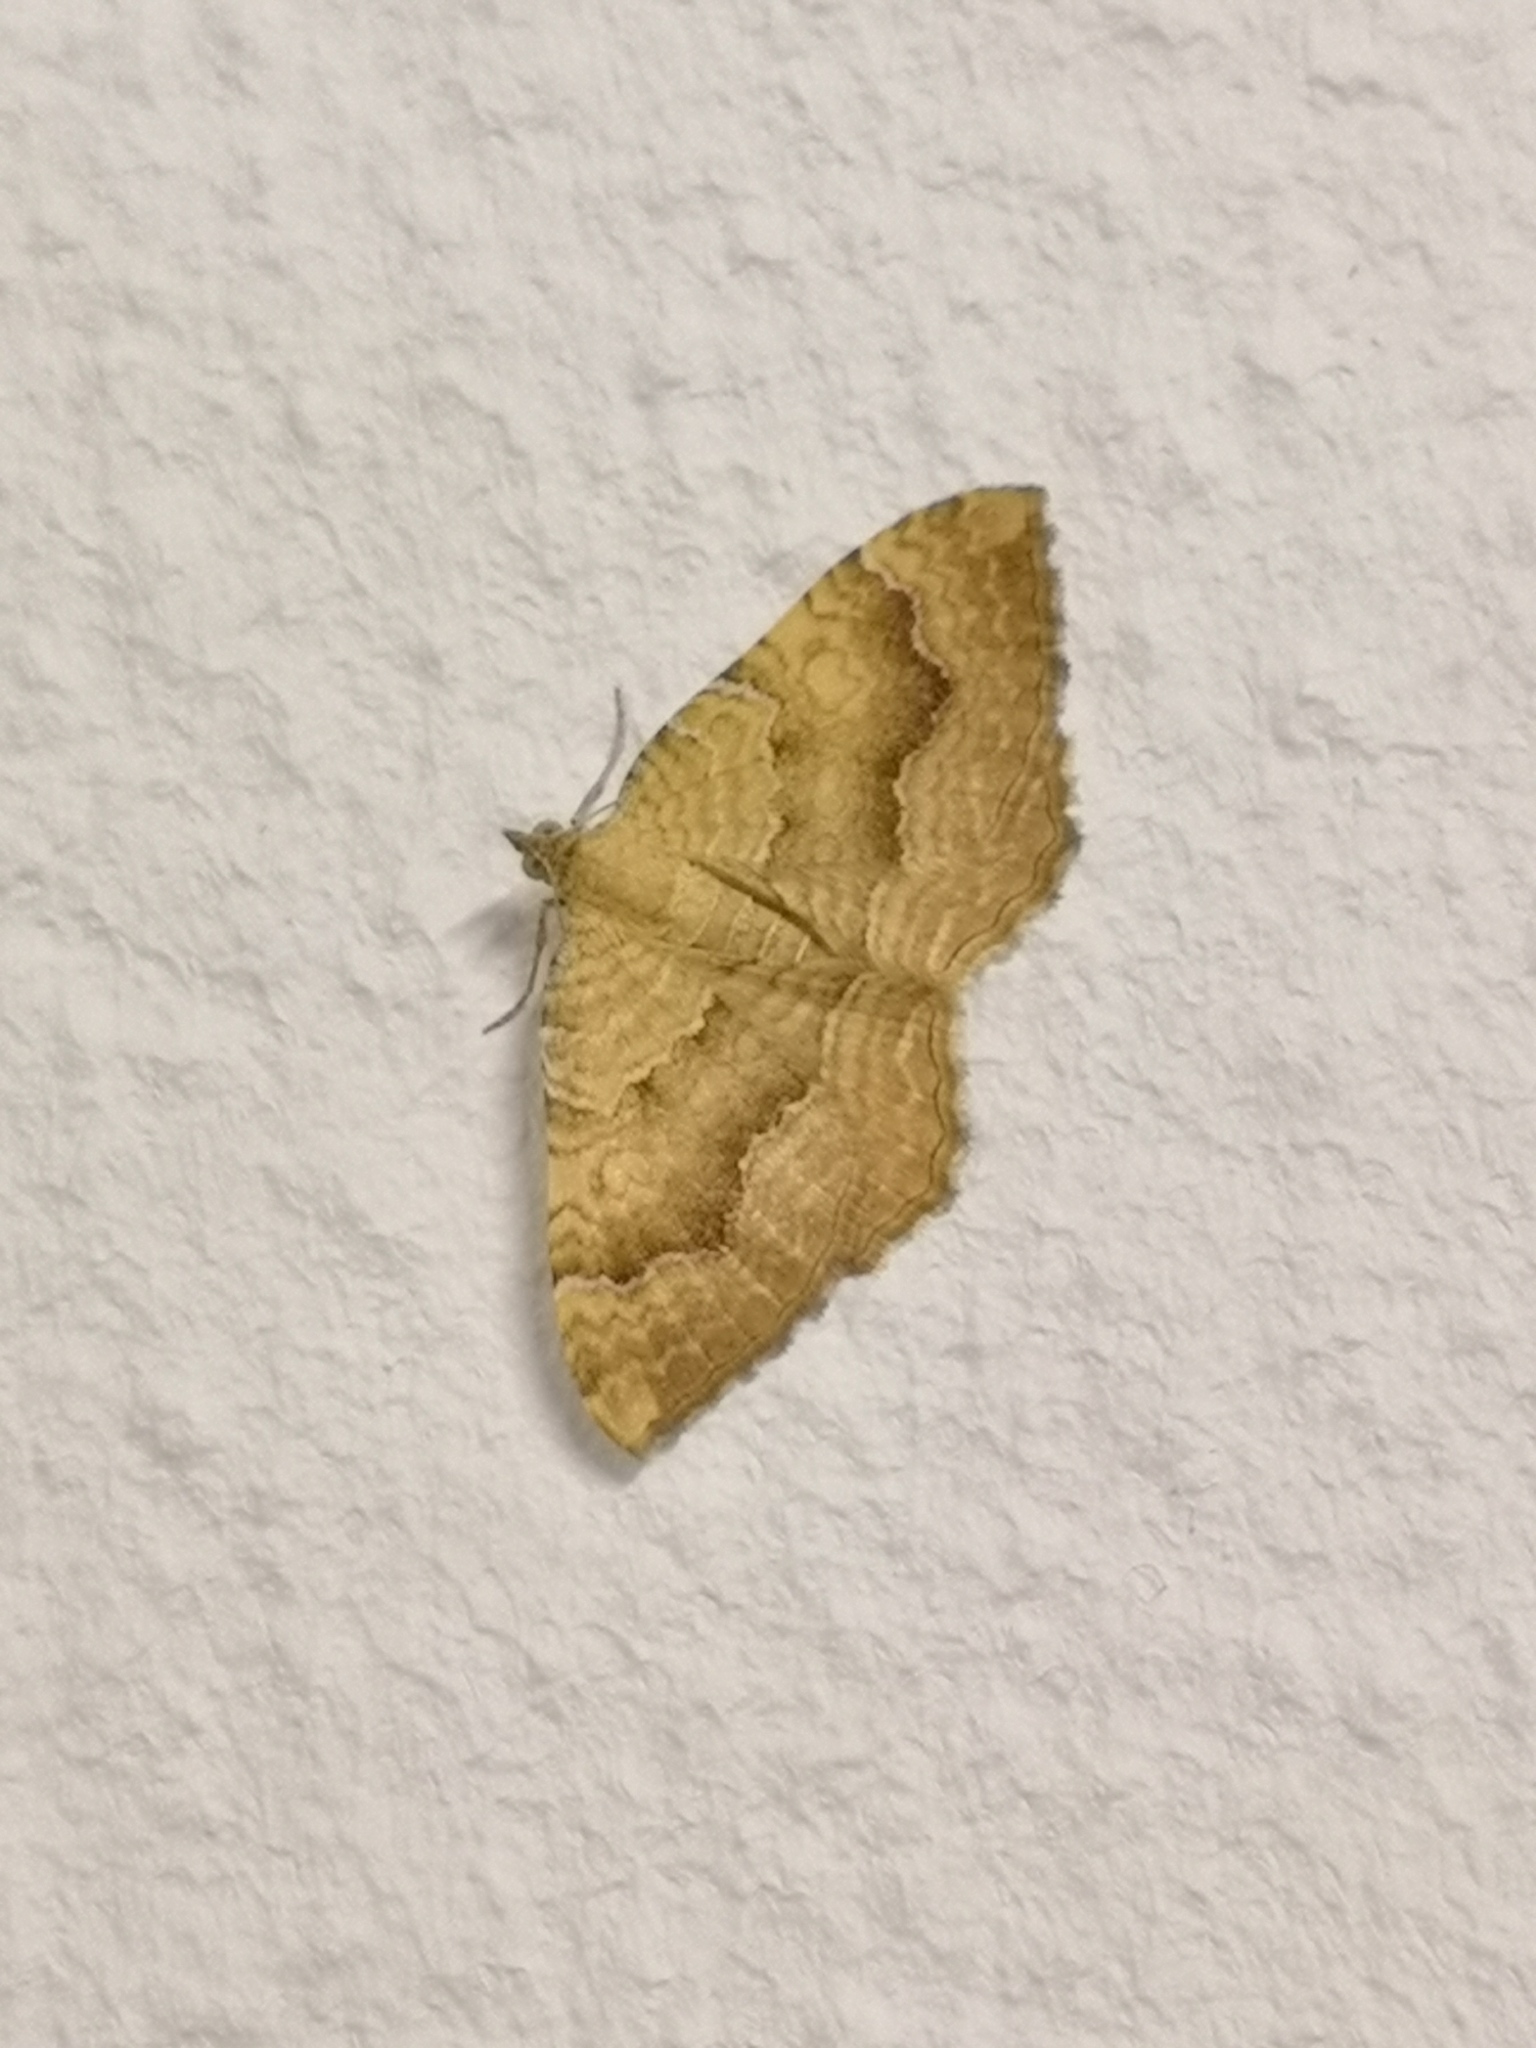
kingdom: Animalia
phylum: Arthropoda
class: Insecta
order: Lepidoptera
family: Geometridae
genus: Camptogramma
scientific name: Camptogramma bilineata
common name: Yellow shell
